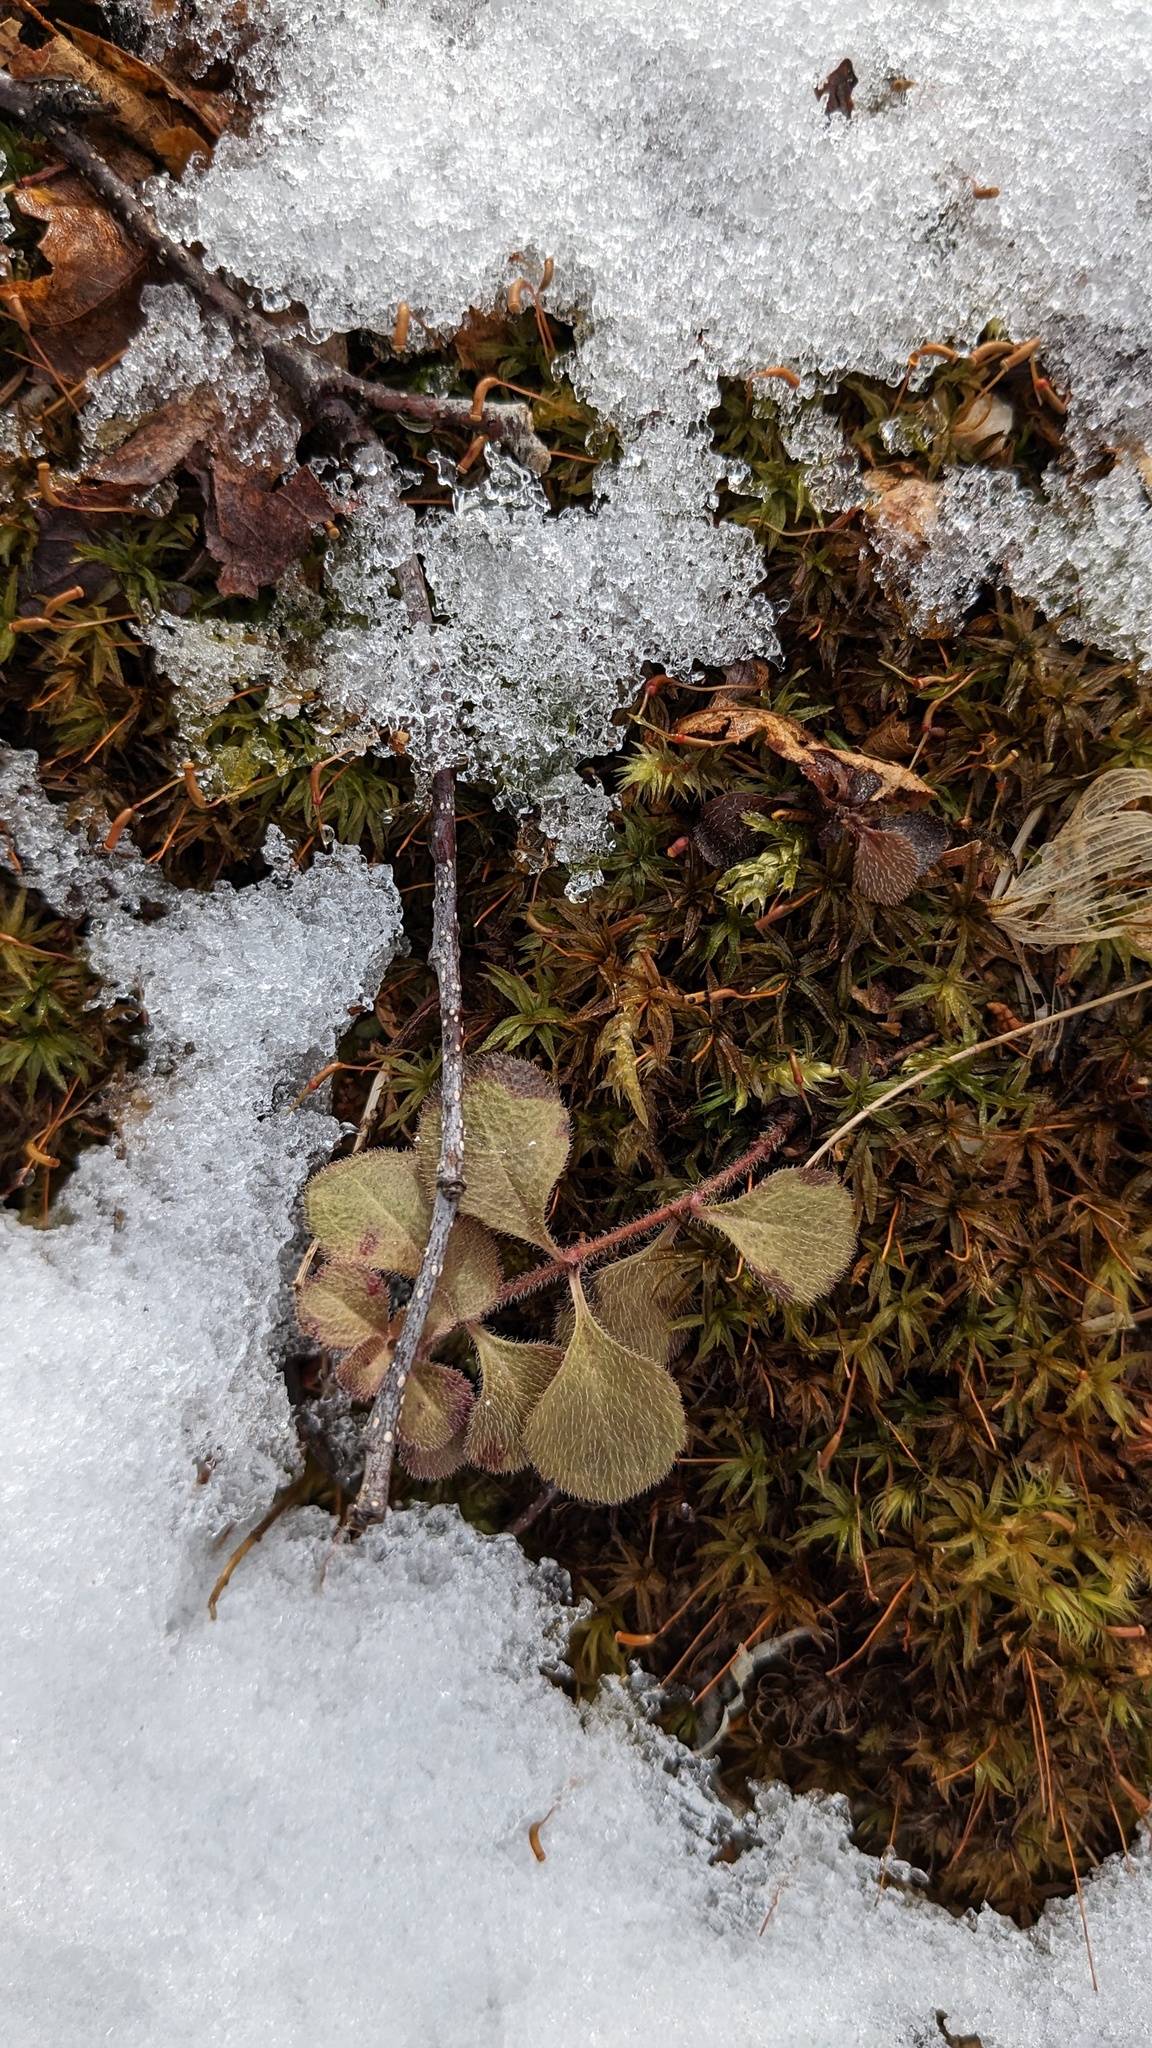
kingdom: Plantae
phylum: Tracheophyta
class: Magnoliopsida
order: Dipsacales
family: Caprifoliaceae
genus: Linnaea
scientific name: Linnaea borealis
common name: Twinflower
